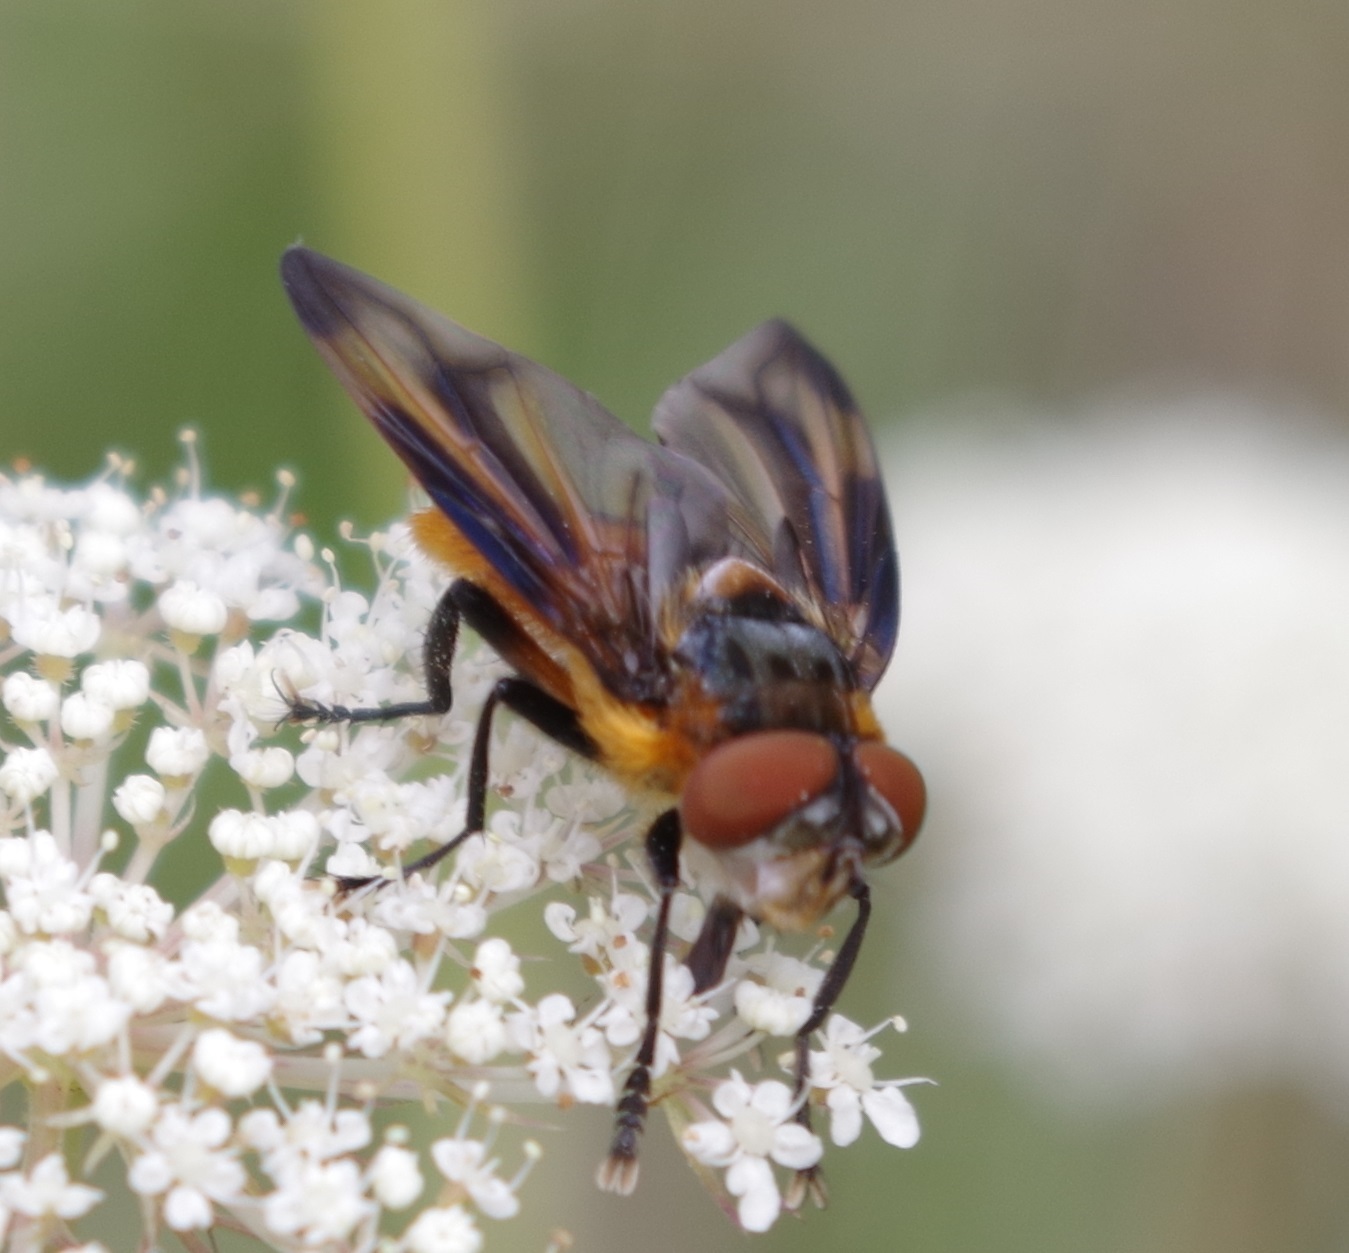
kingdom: Animalia
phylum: Arthropoda
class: Insecta
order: Diptera
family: Tachinidae
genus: Phasia
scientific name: Phasia hemiptera
